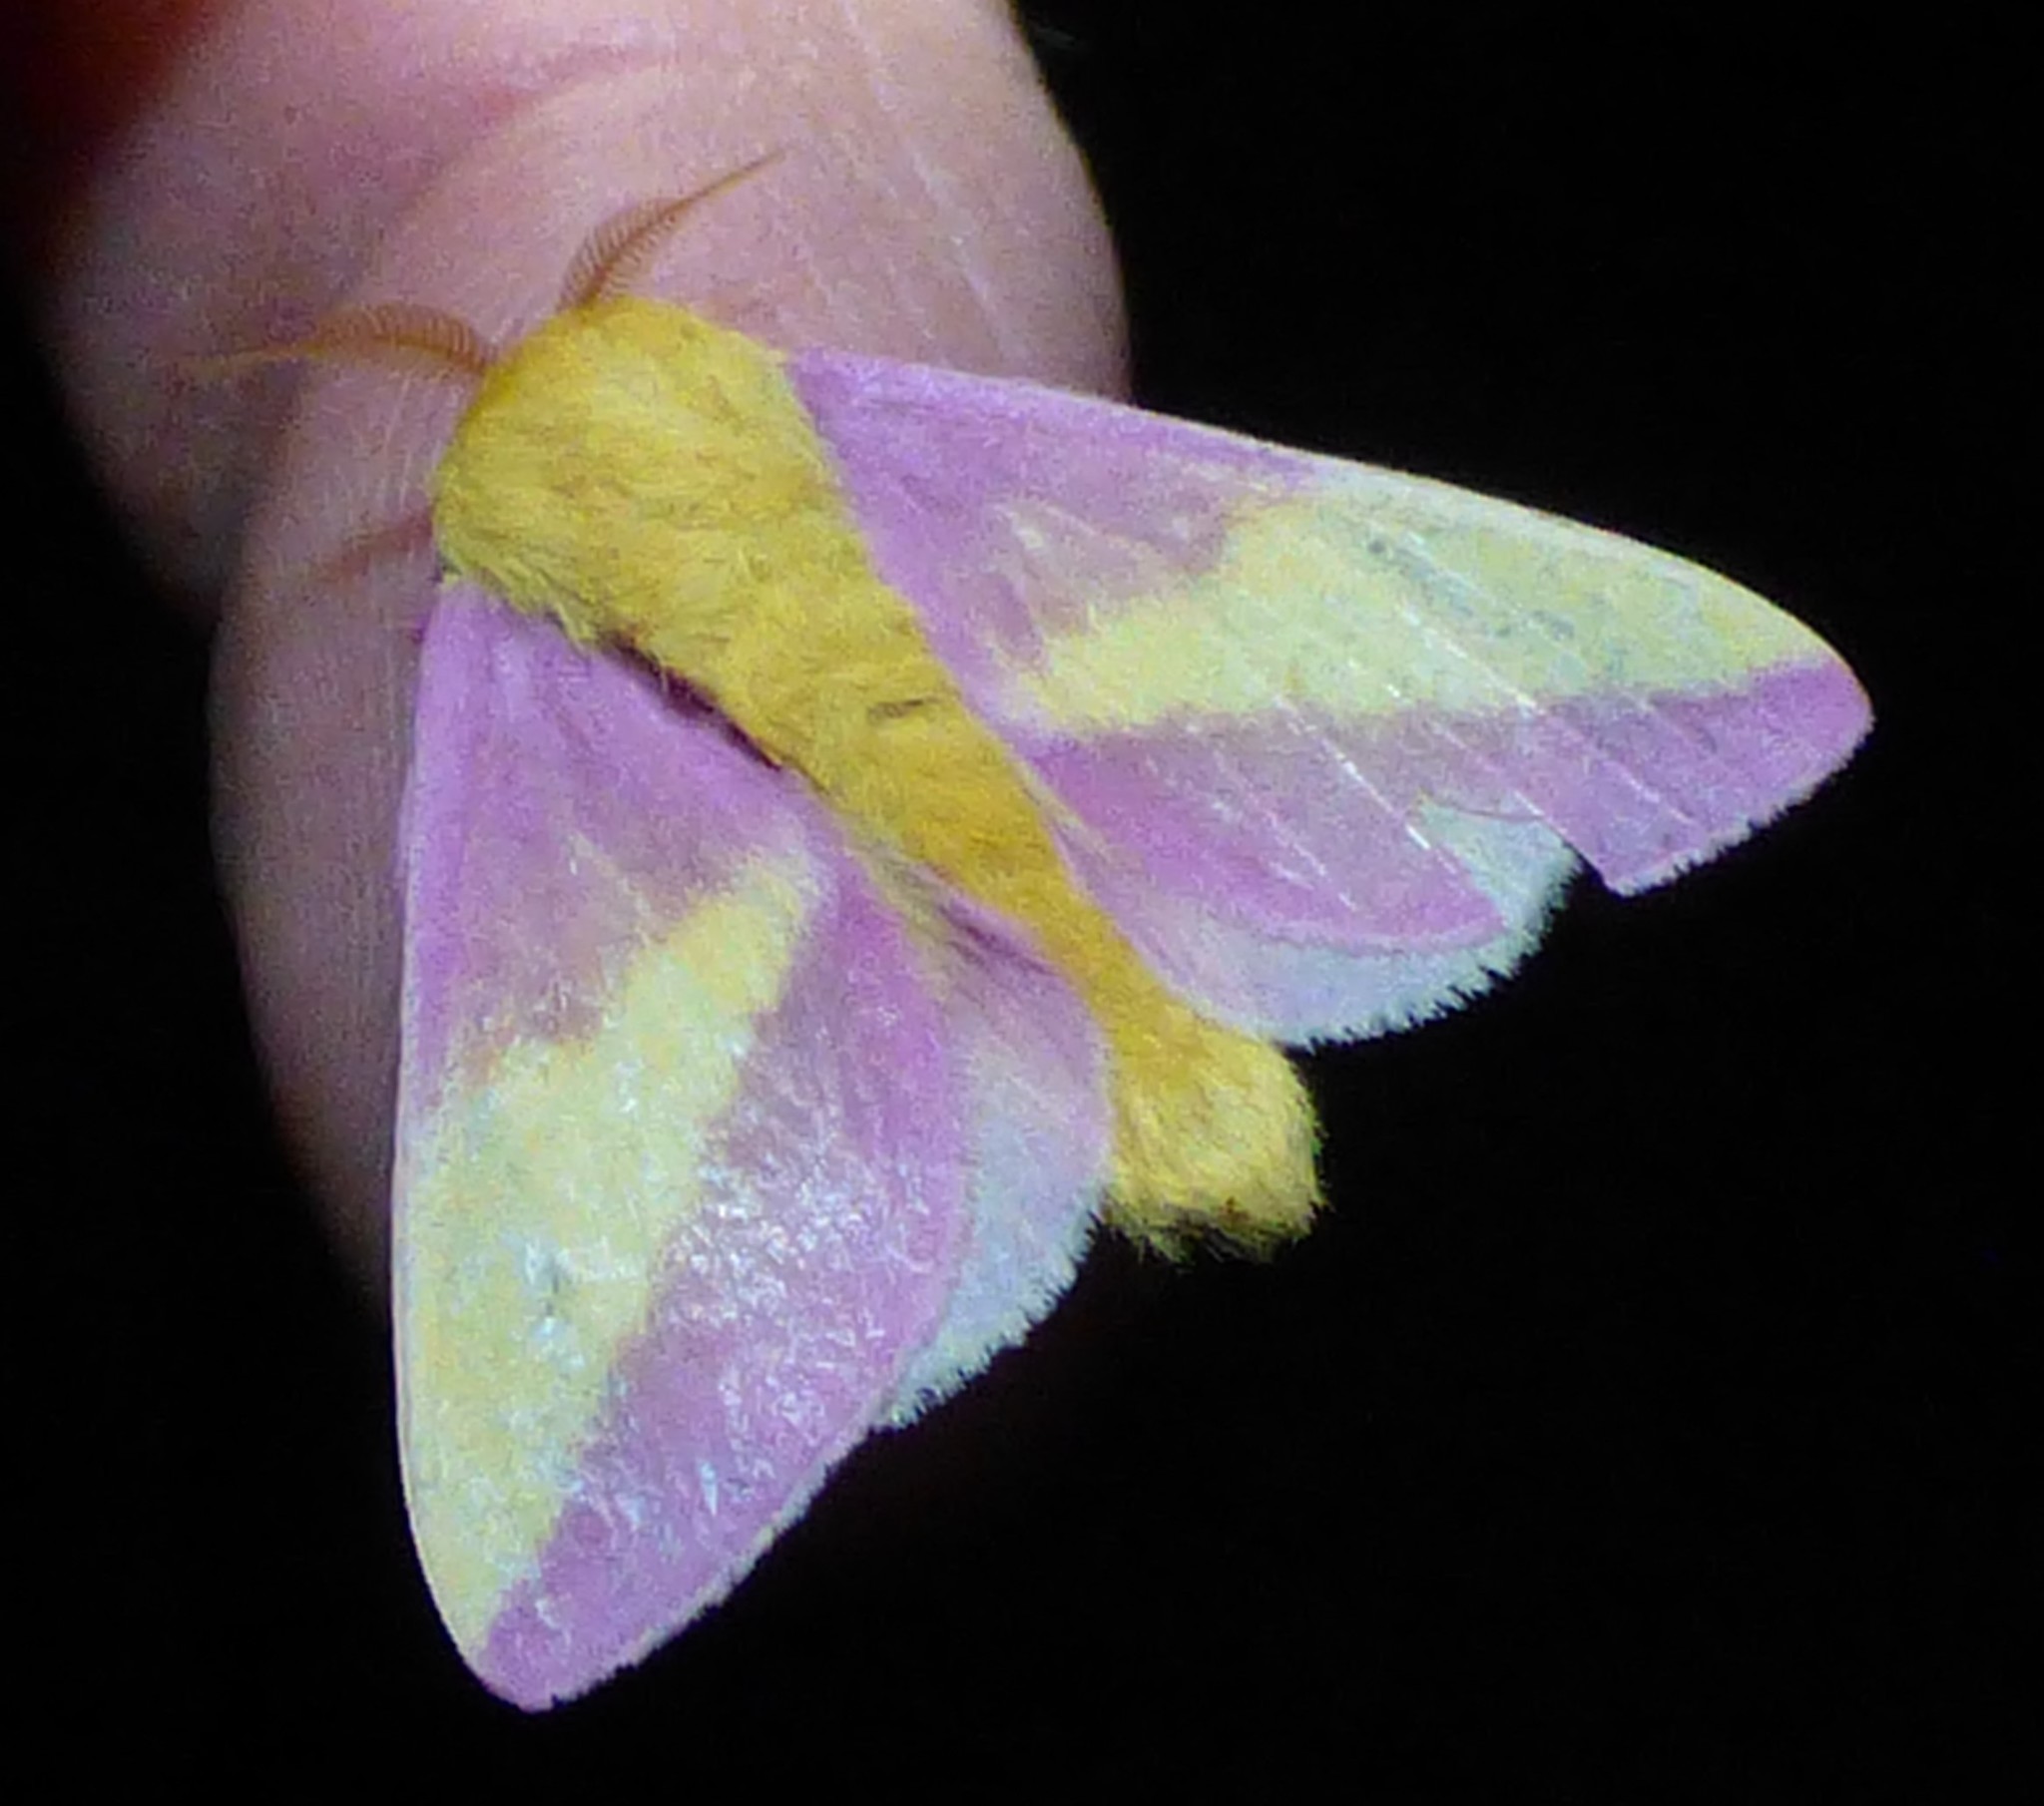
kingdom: Animalia
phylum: Arthropoda
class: Insecta
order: Lepidoptera
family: Saturniidae
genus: Dryocampa
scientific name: Dryocampa rubicunda
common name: Rosy maple moth
